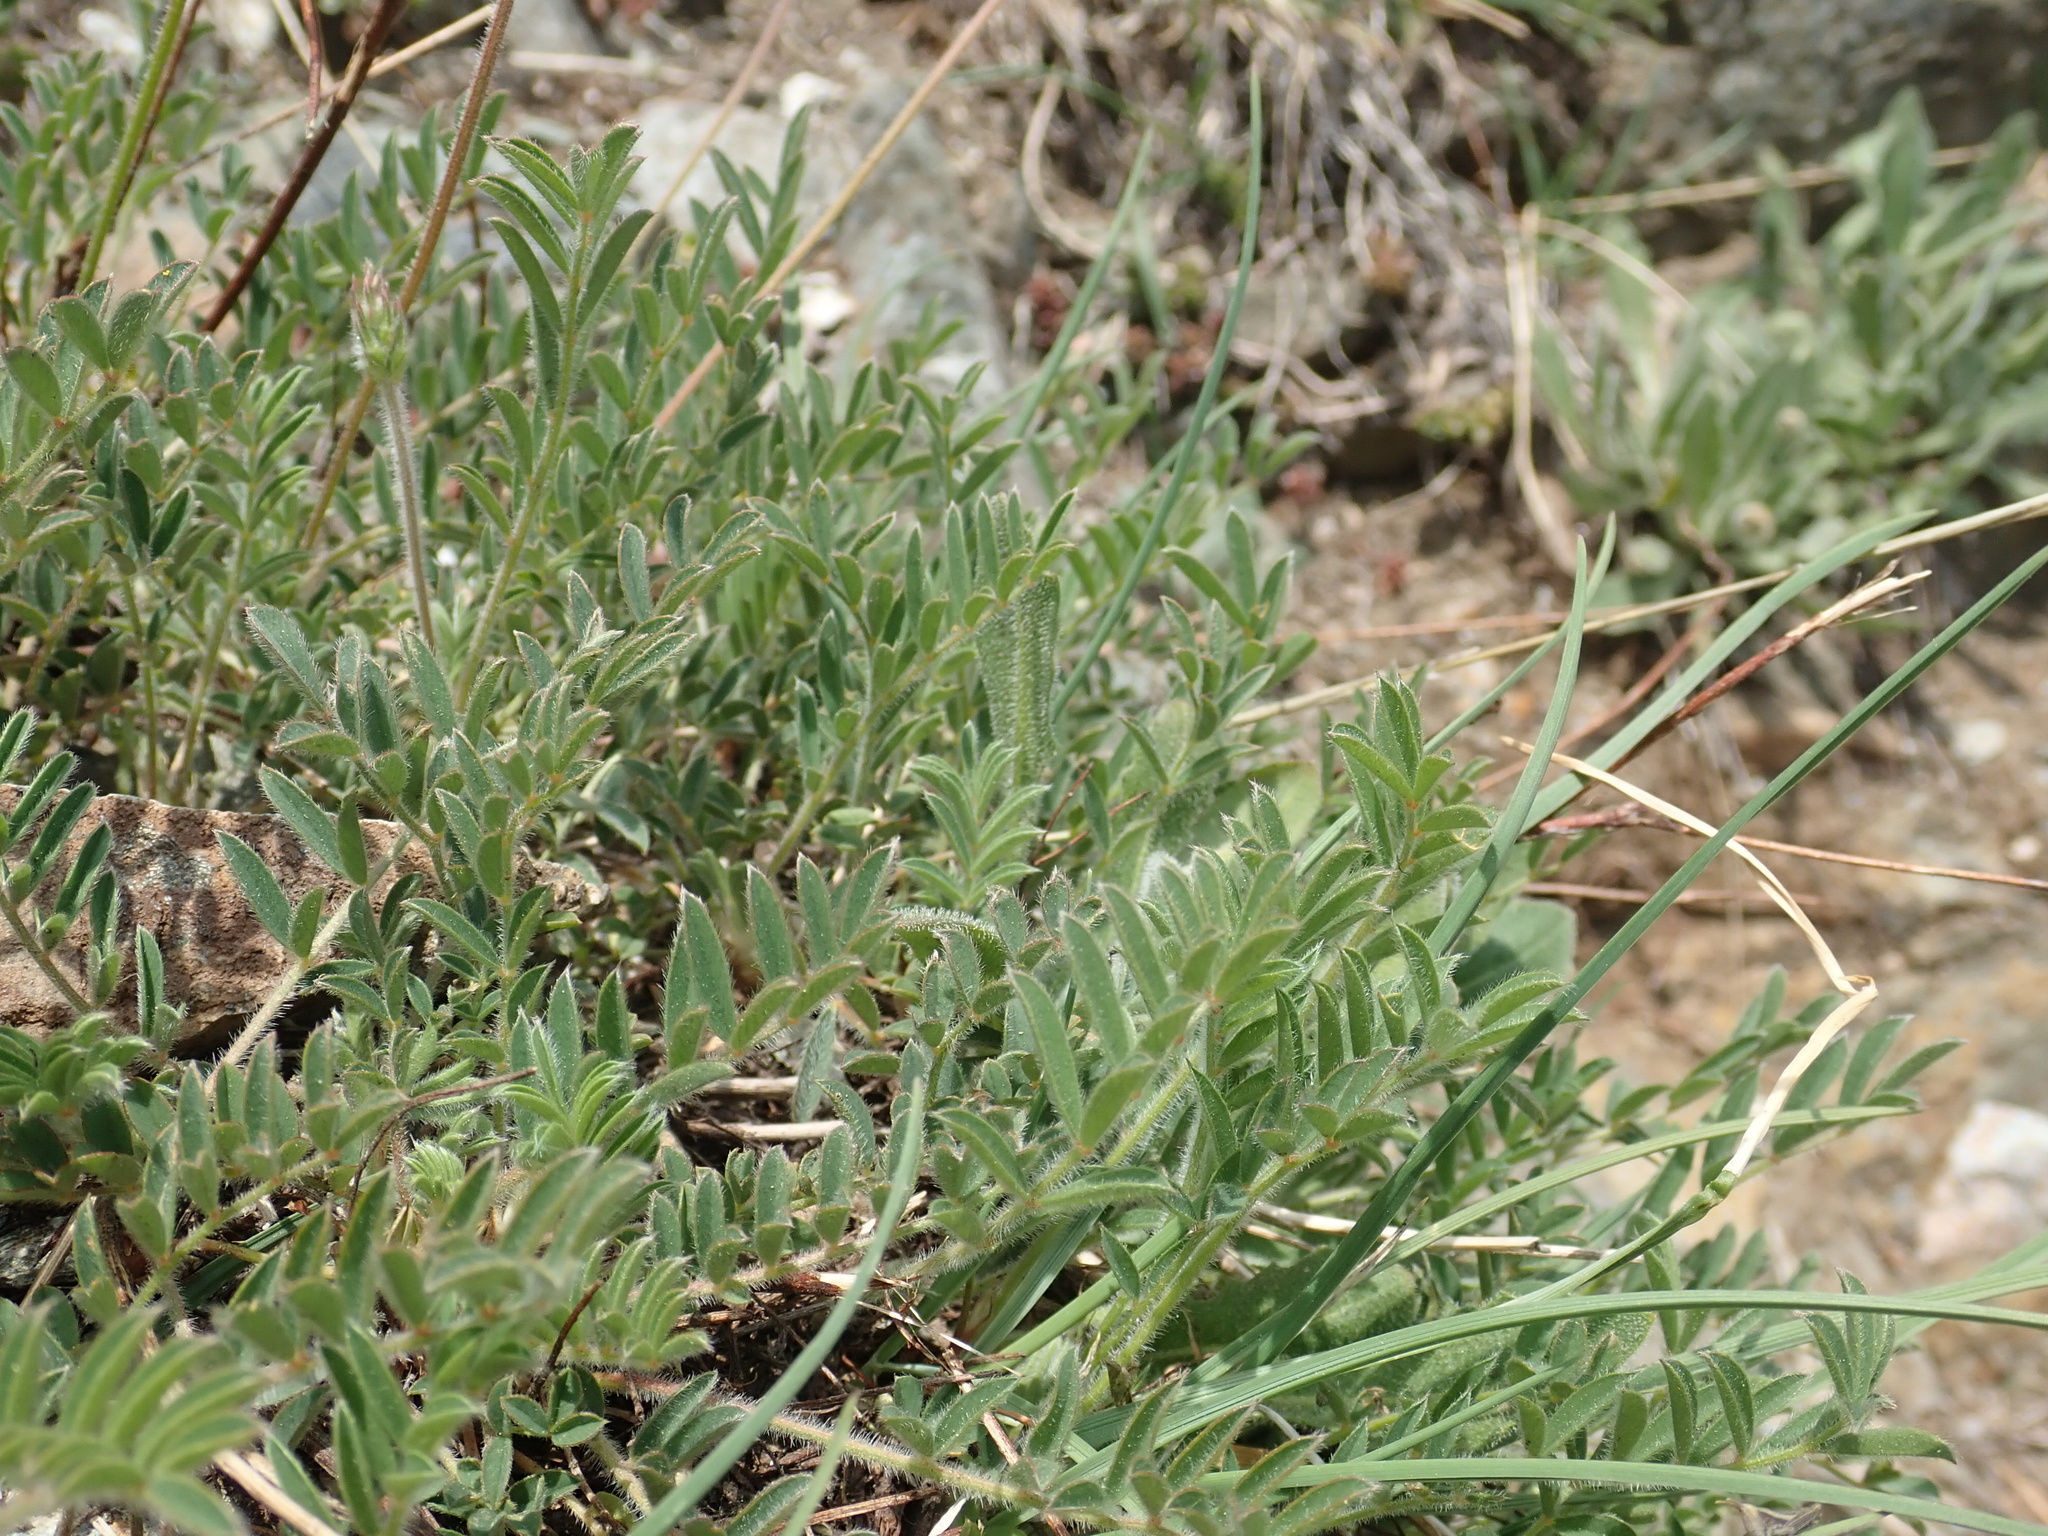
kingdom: Plantae
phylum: Tracheophyta
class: Magnoliopsida
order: Fabales
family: Fabaceae
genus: Onobrychis
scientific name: Onobrychis montana
